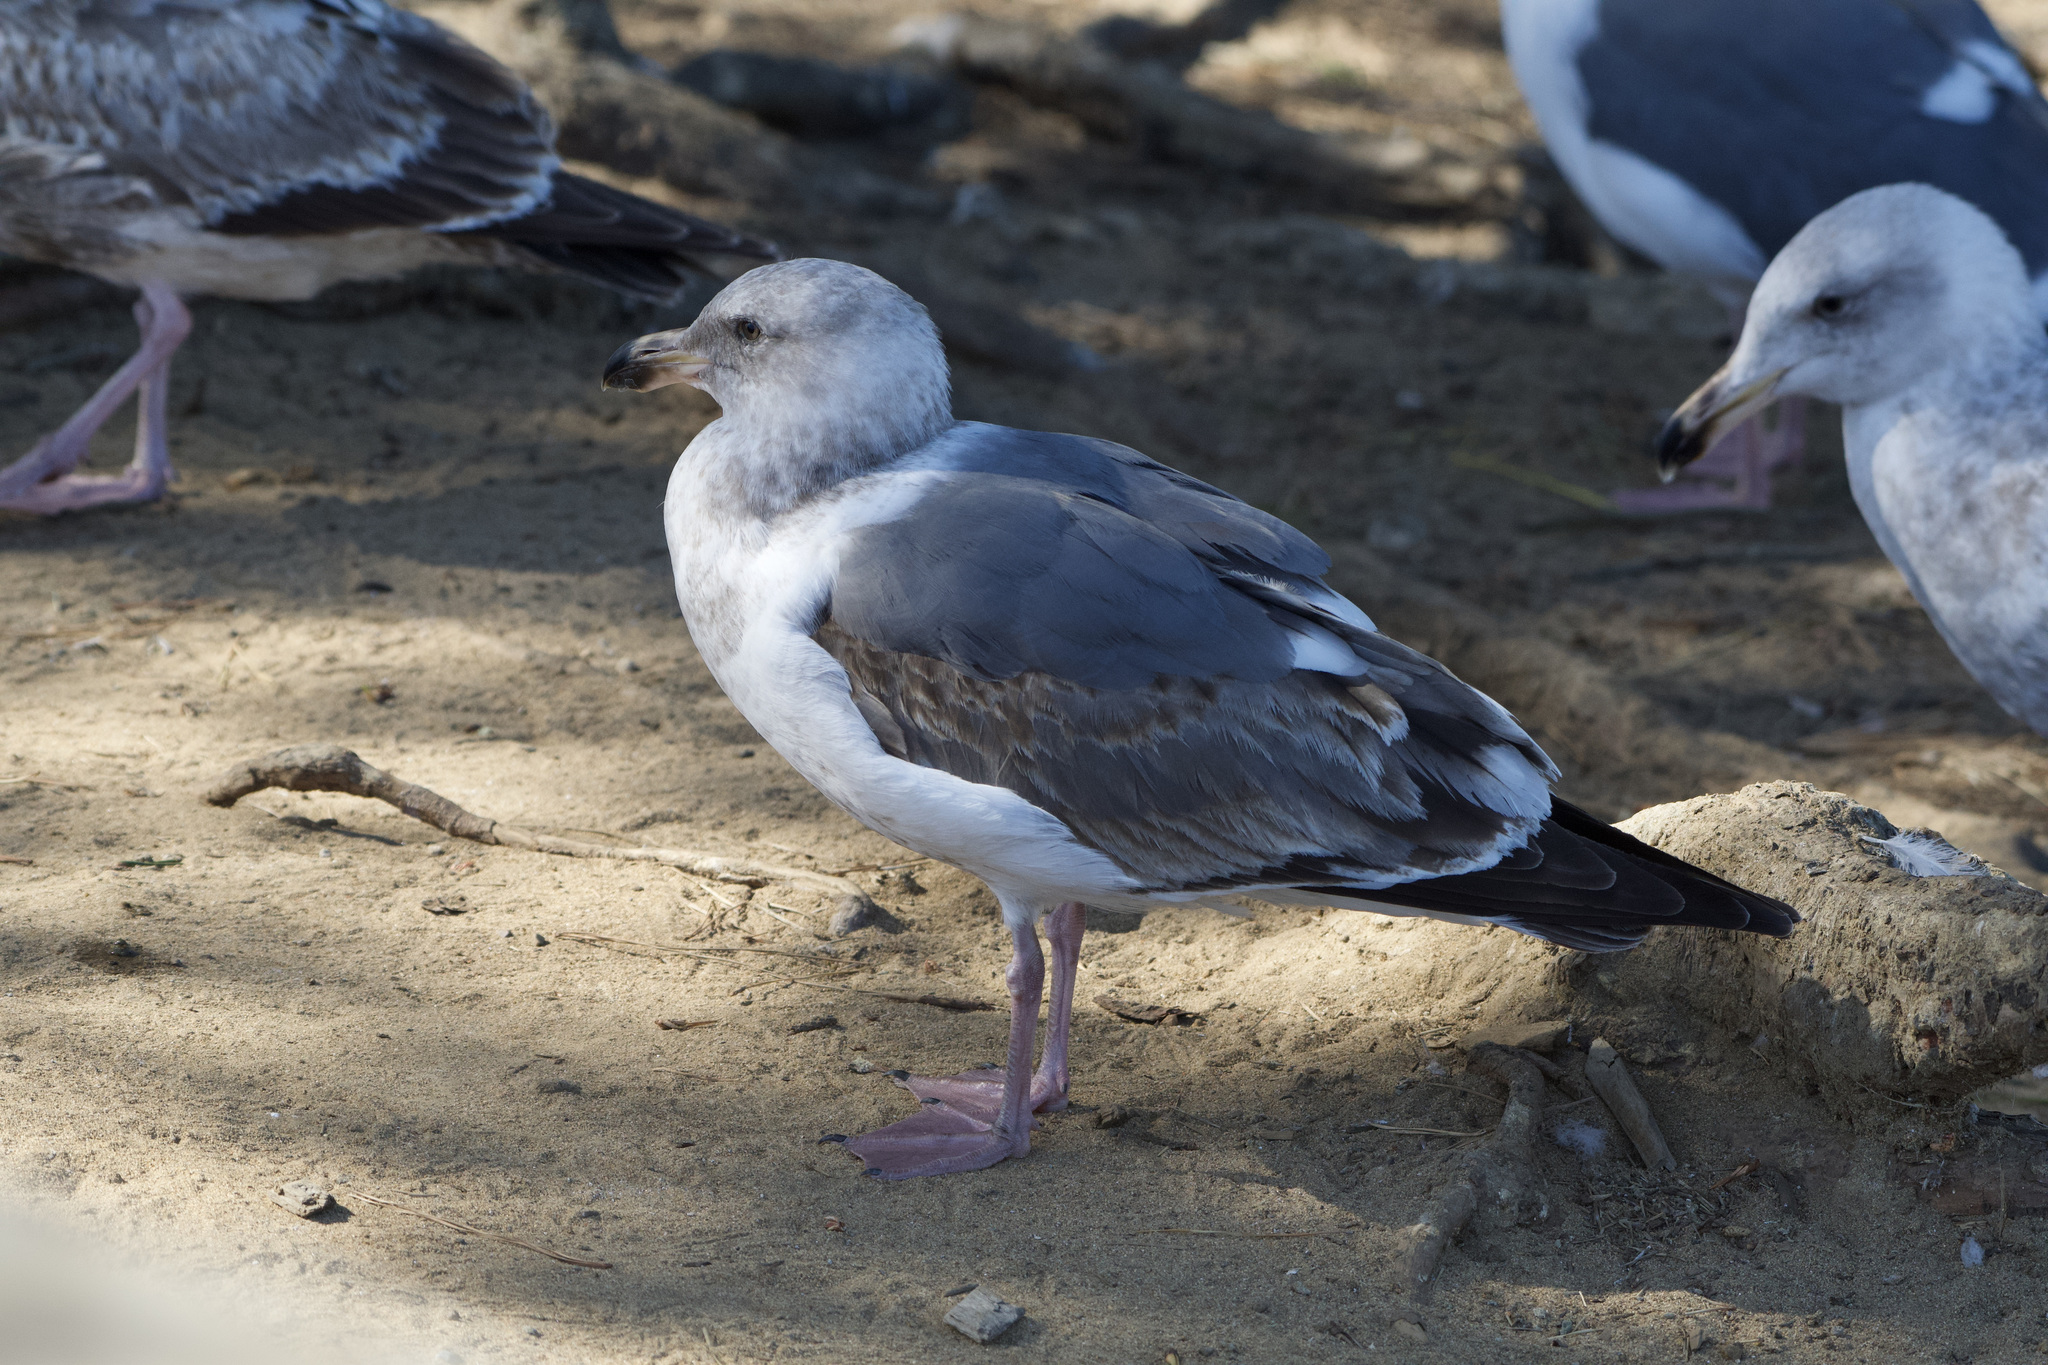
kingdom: Animalia
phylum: Chordata
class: Aves
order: Charadriiformes
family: Laridae
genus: Larus
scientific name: Larus occidentalis
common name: Western gull
